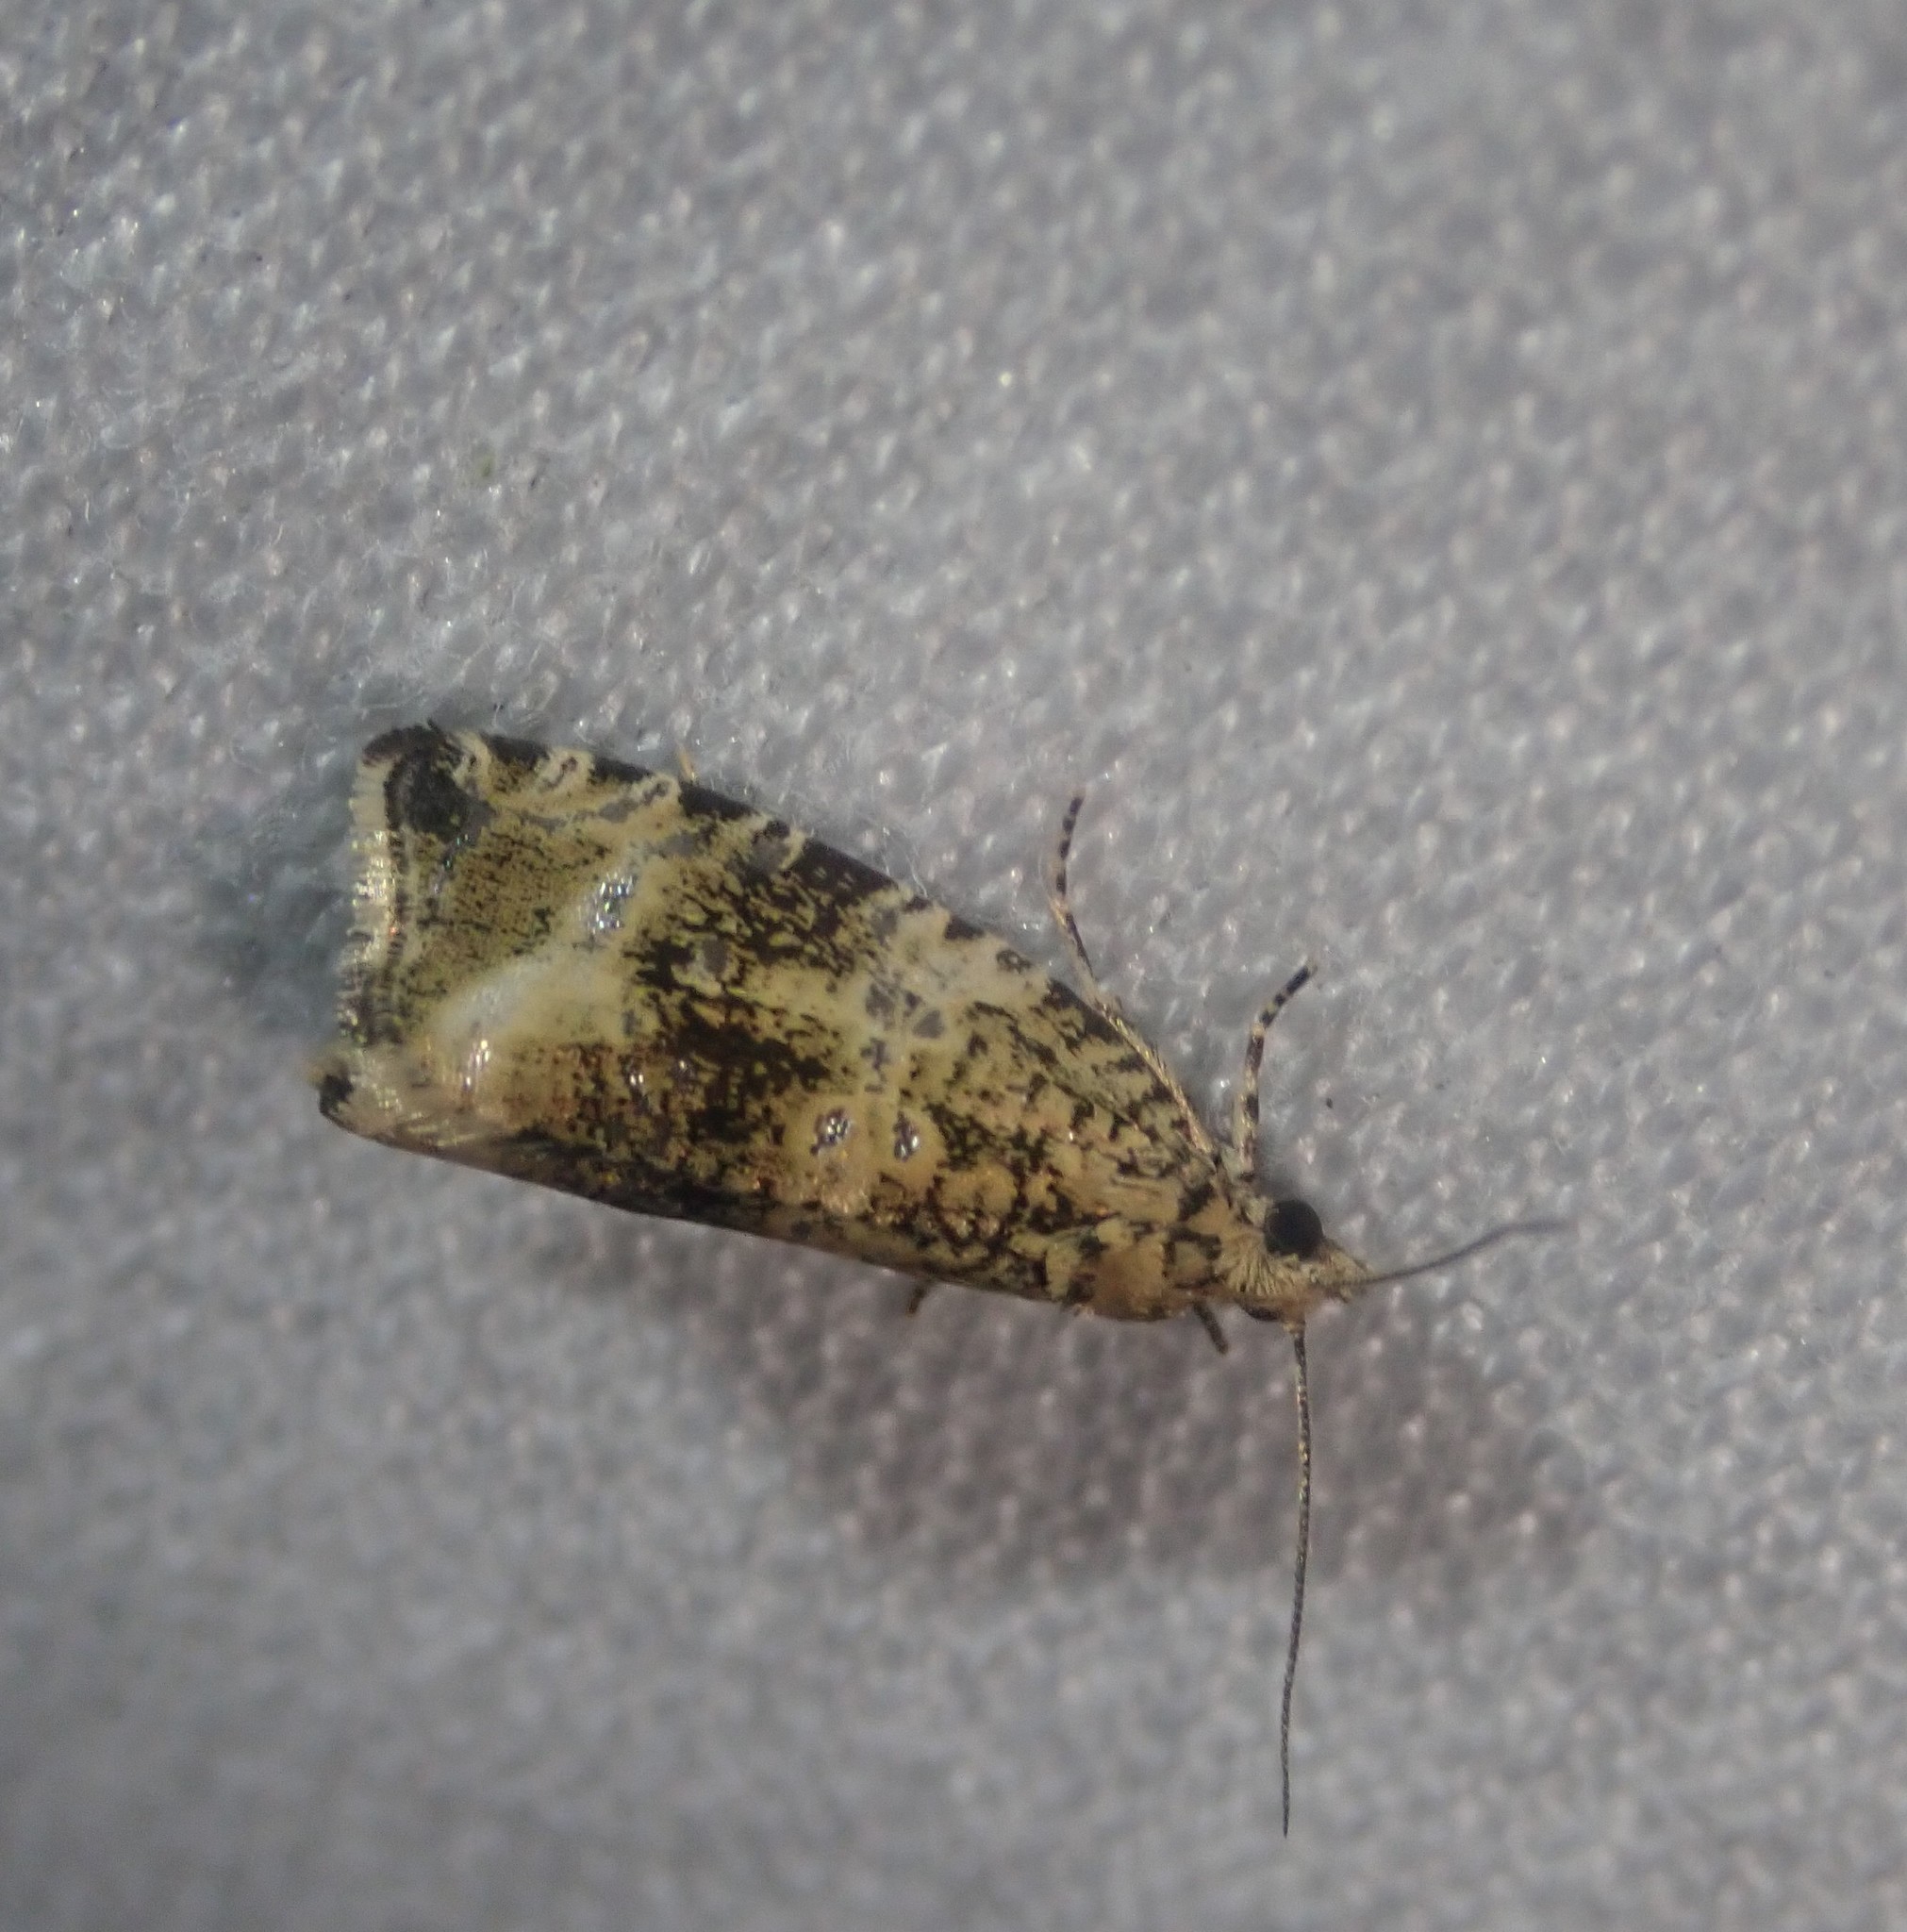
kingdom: Animalia
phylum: Arthropoda
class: Insecta
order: Lepidoptera
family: Tortricidae
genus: Syricoris
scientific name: Syricoris lacunana
